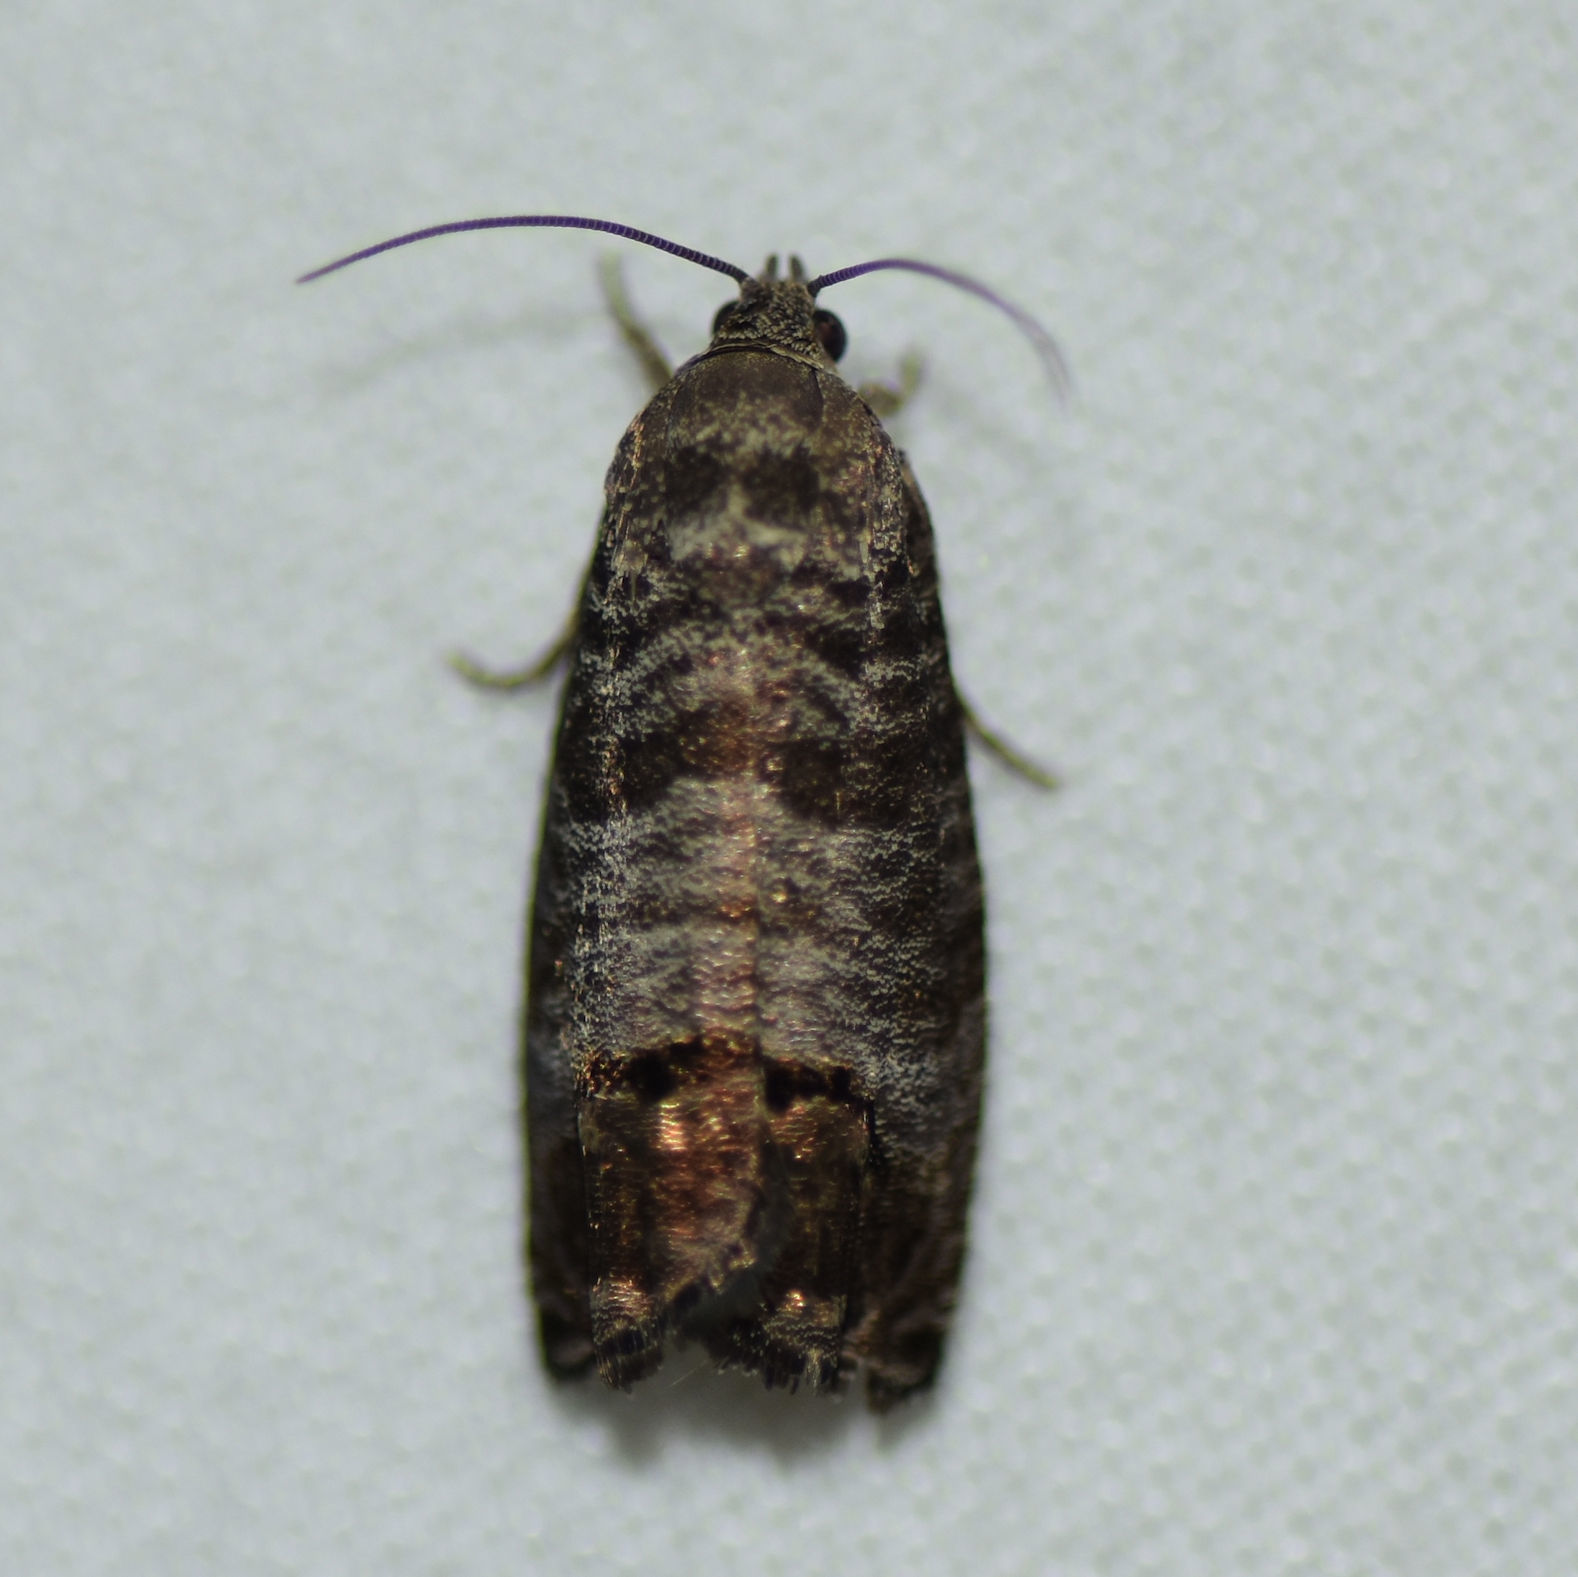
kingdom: Animalia
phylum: Arthropoda
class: Insecta
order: Lepidoptera
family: Tortricidae
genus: Cydia
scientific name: Cydia pomonella
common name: Codling moth
